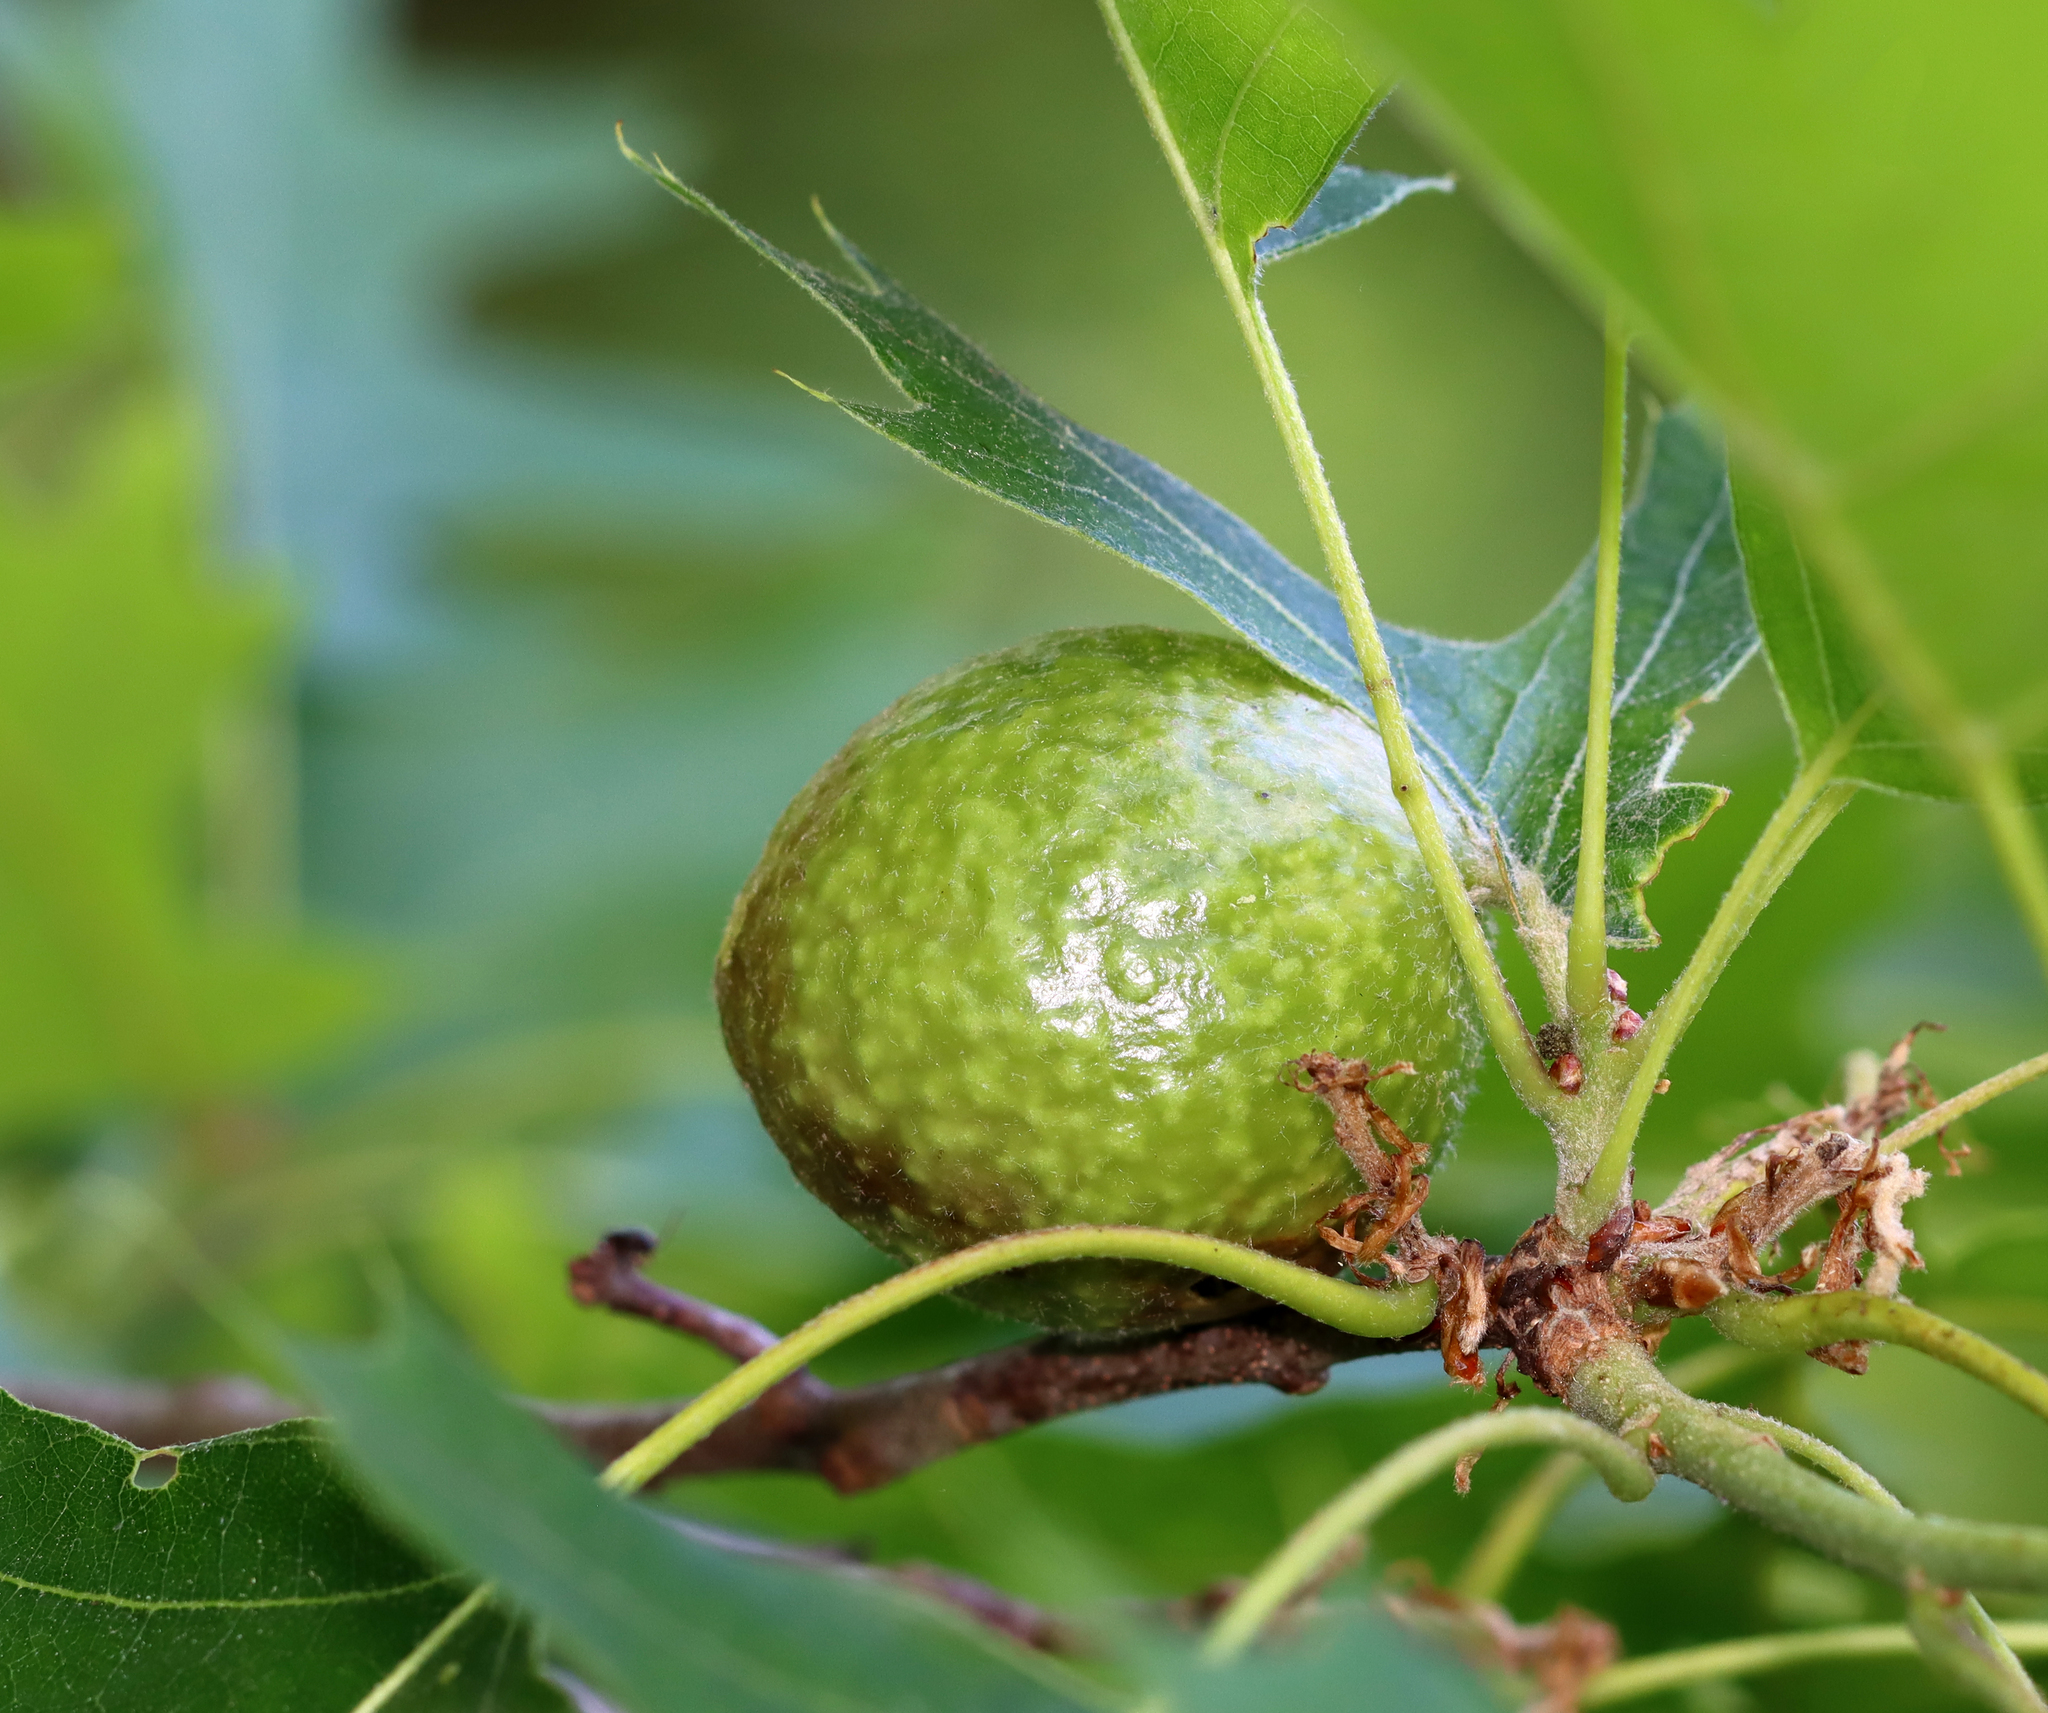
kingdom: Animalia
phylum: Arthropoda
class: Insecta
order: Hymenoptera
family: Cynipidae
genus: Amphibolips
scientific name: Amphibolips
